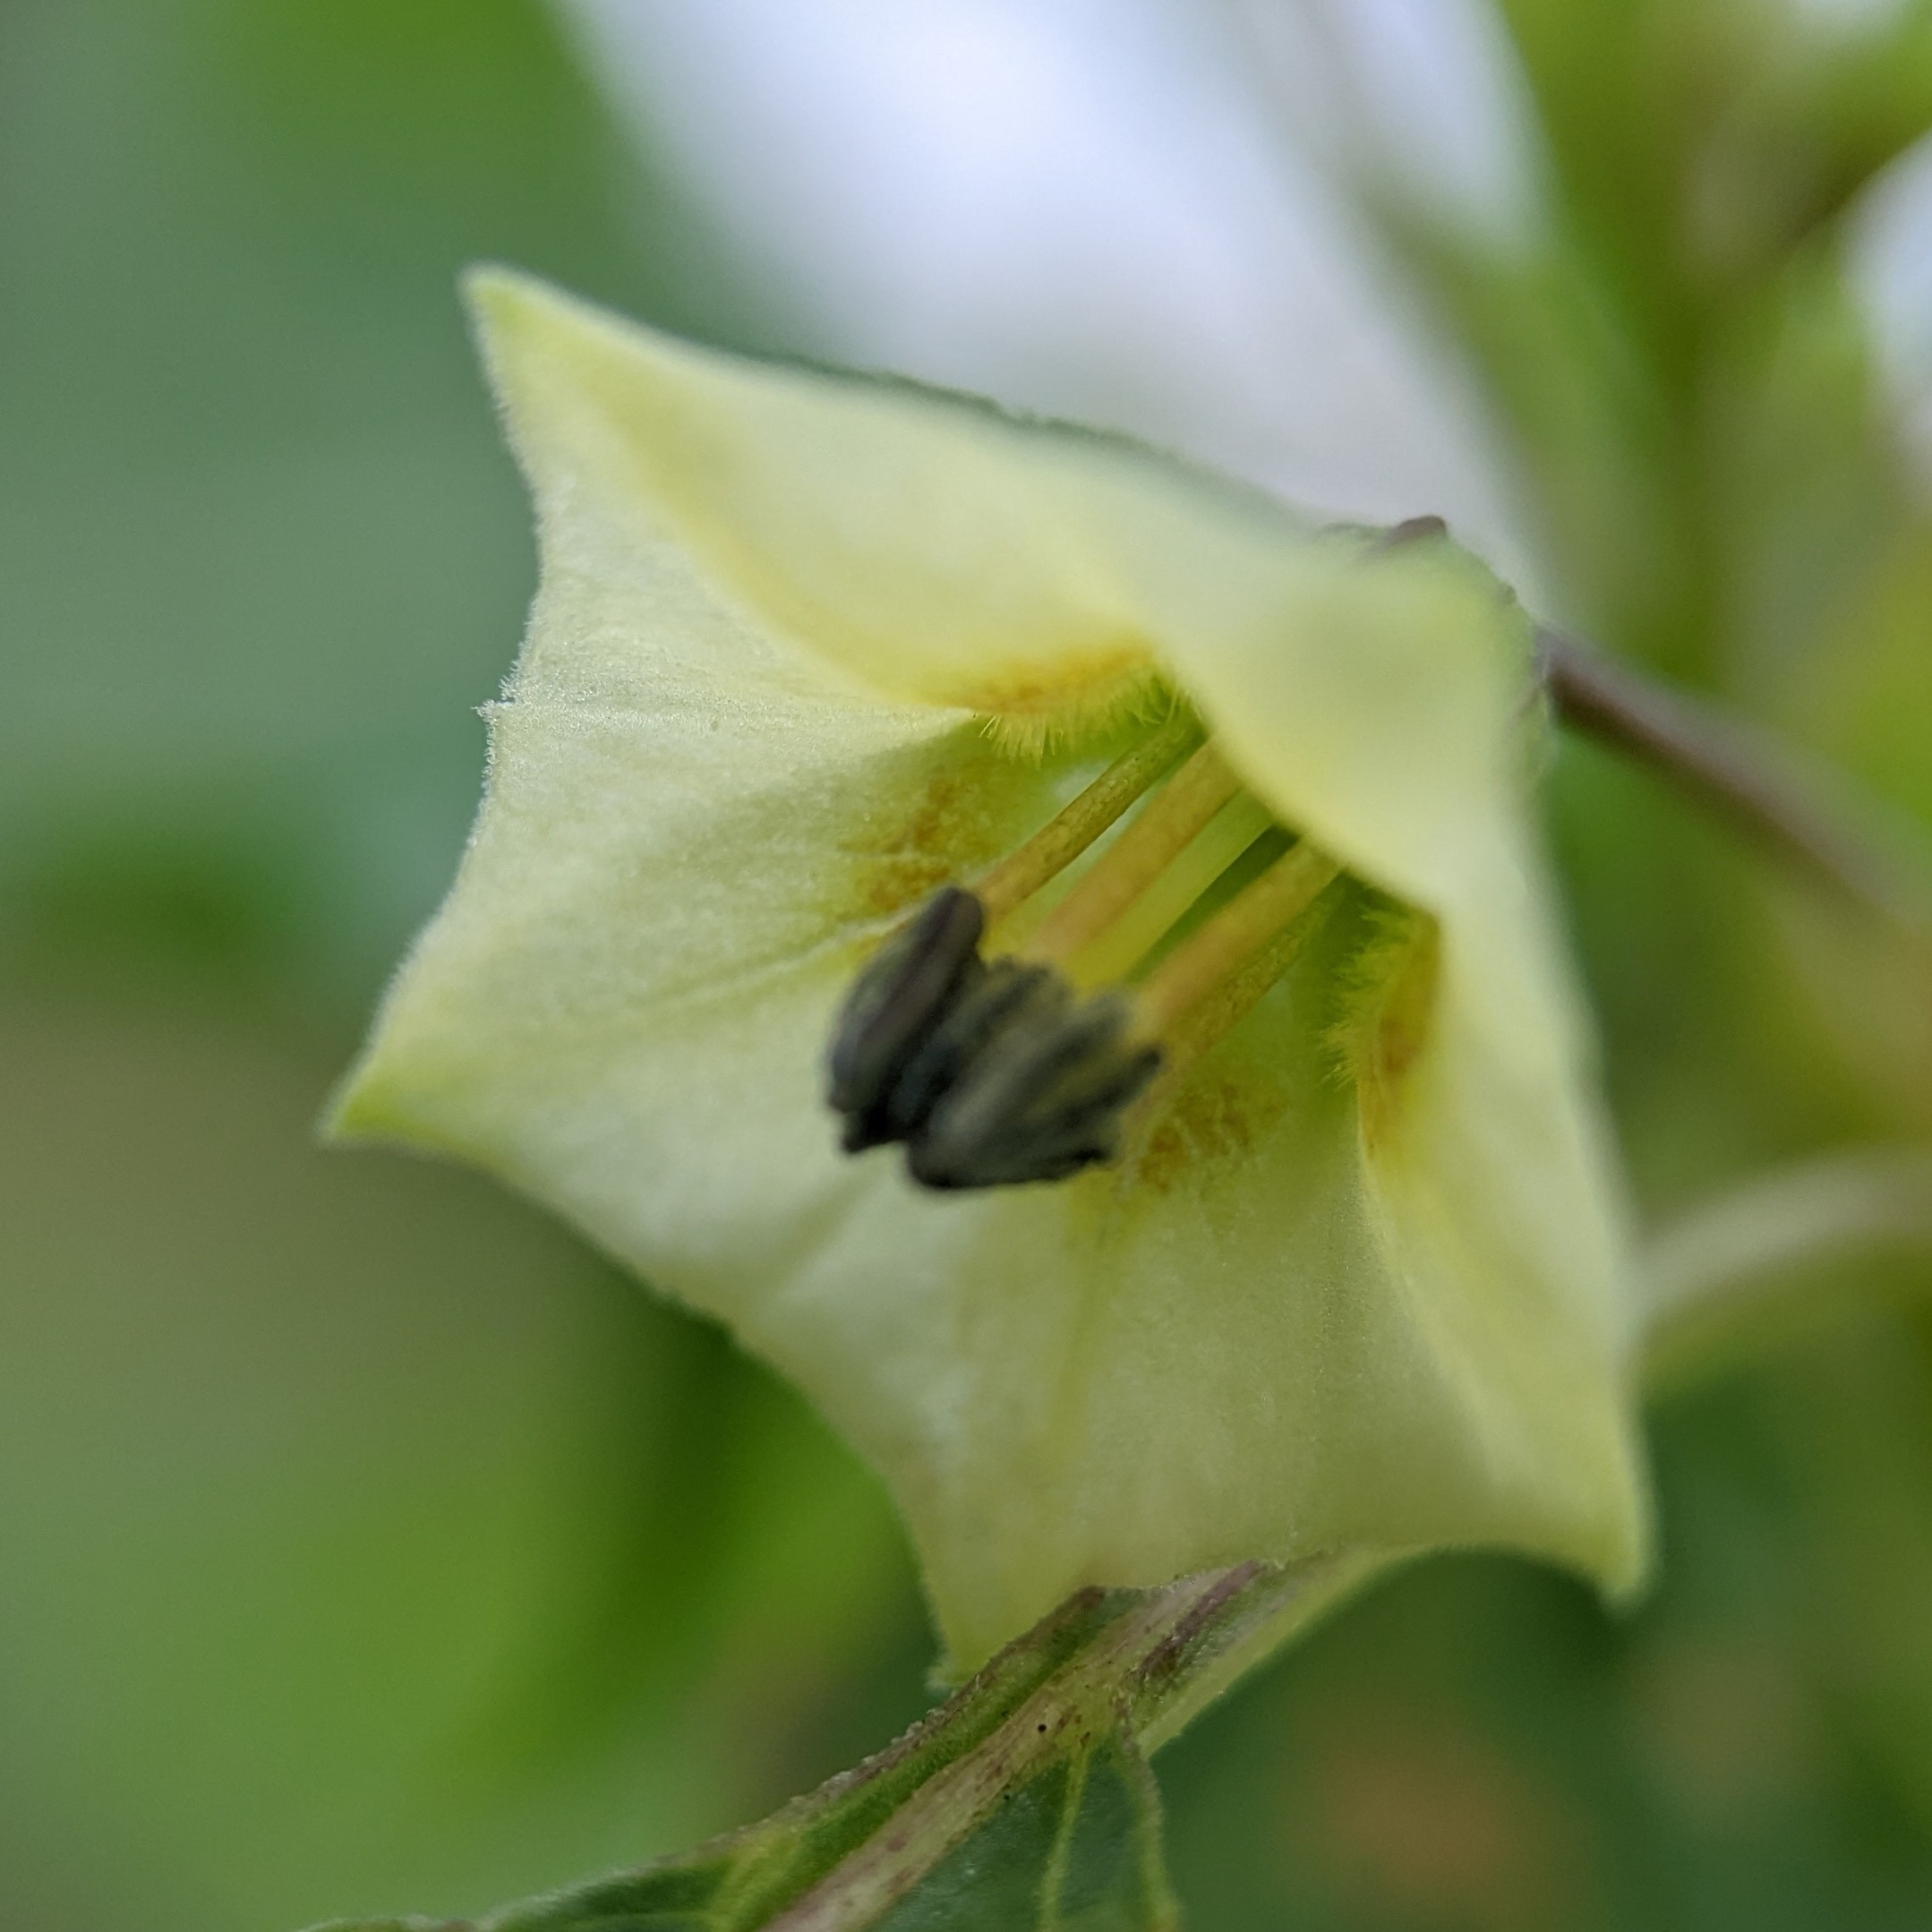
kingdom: Plantae
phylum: Tracheophyta
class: Magnoliopsida
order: Solanales
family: Solanaceae
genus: Physalis
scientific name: Physalis angulata
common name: Angular winter-cherry
